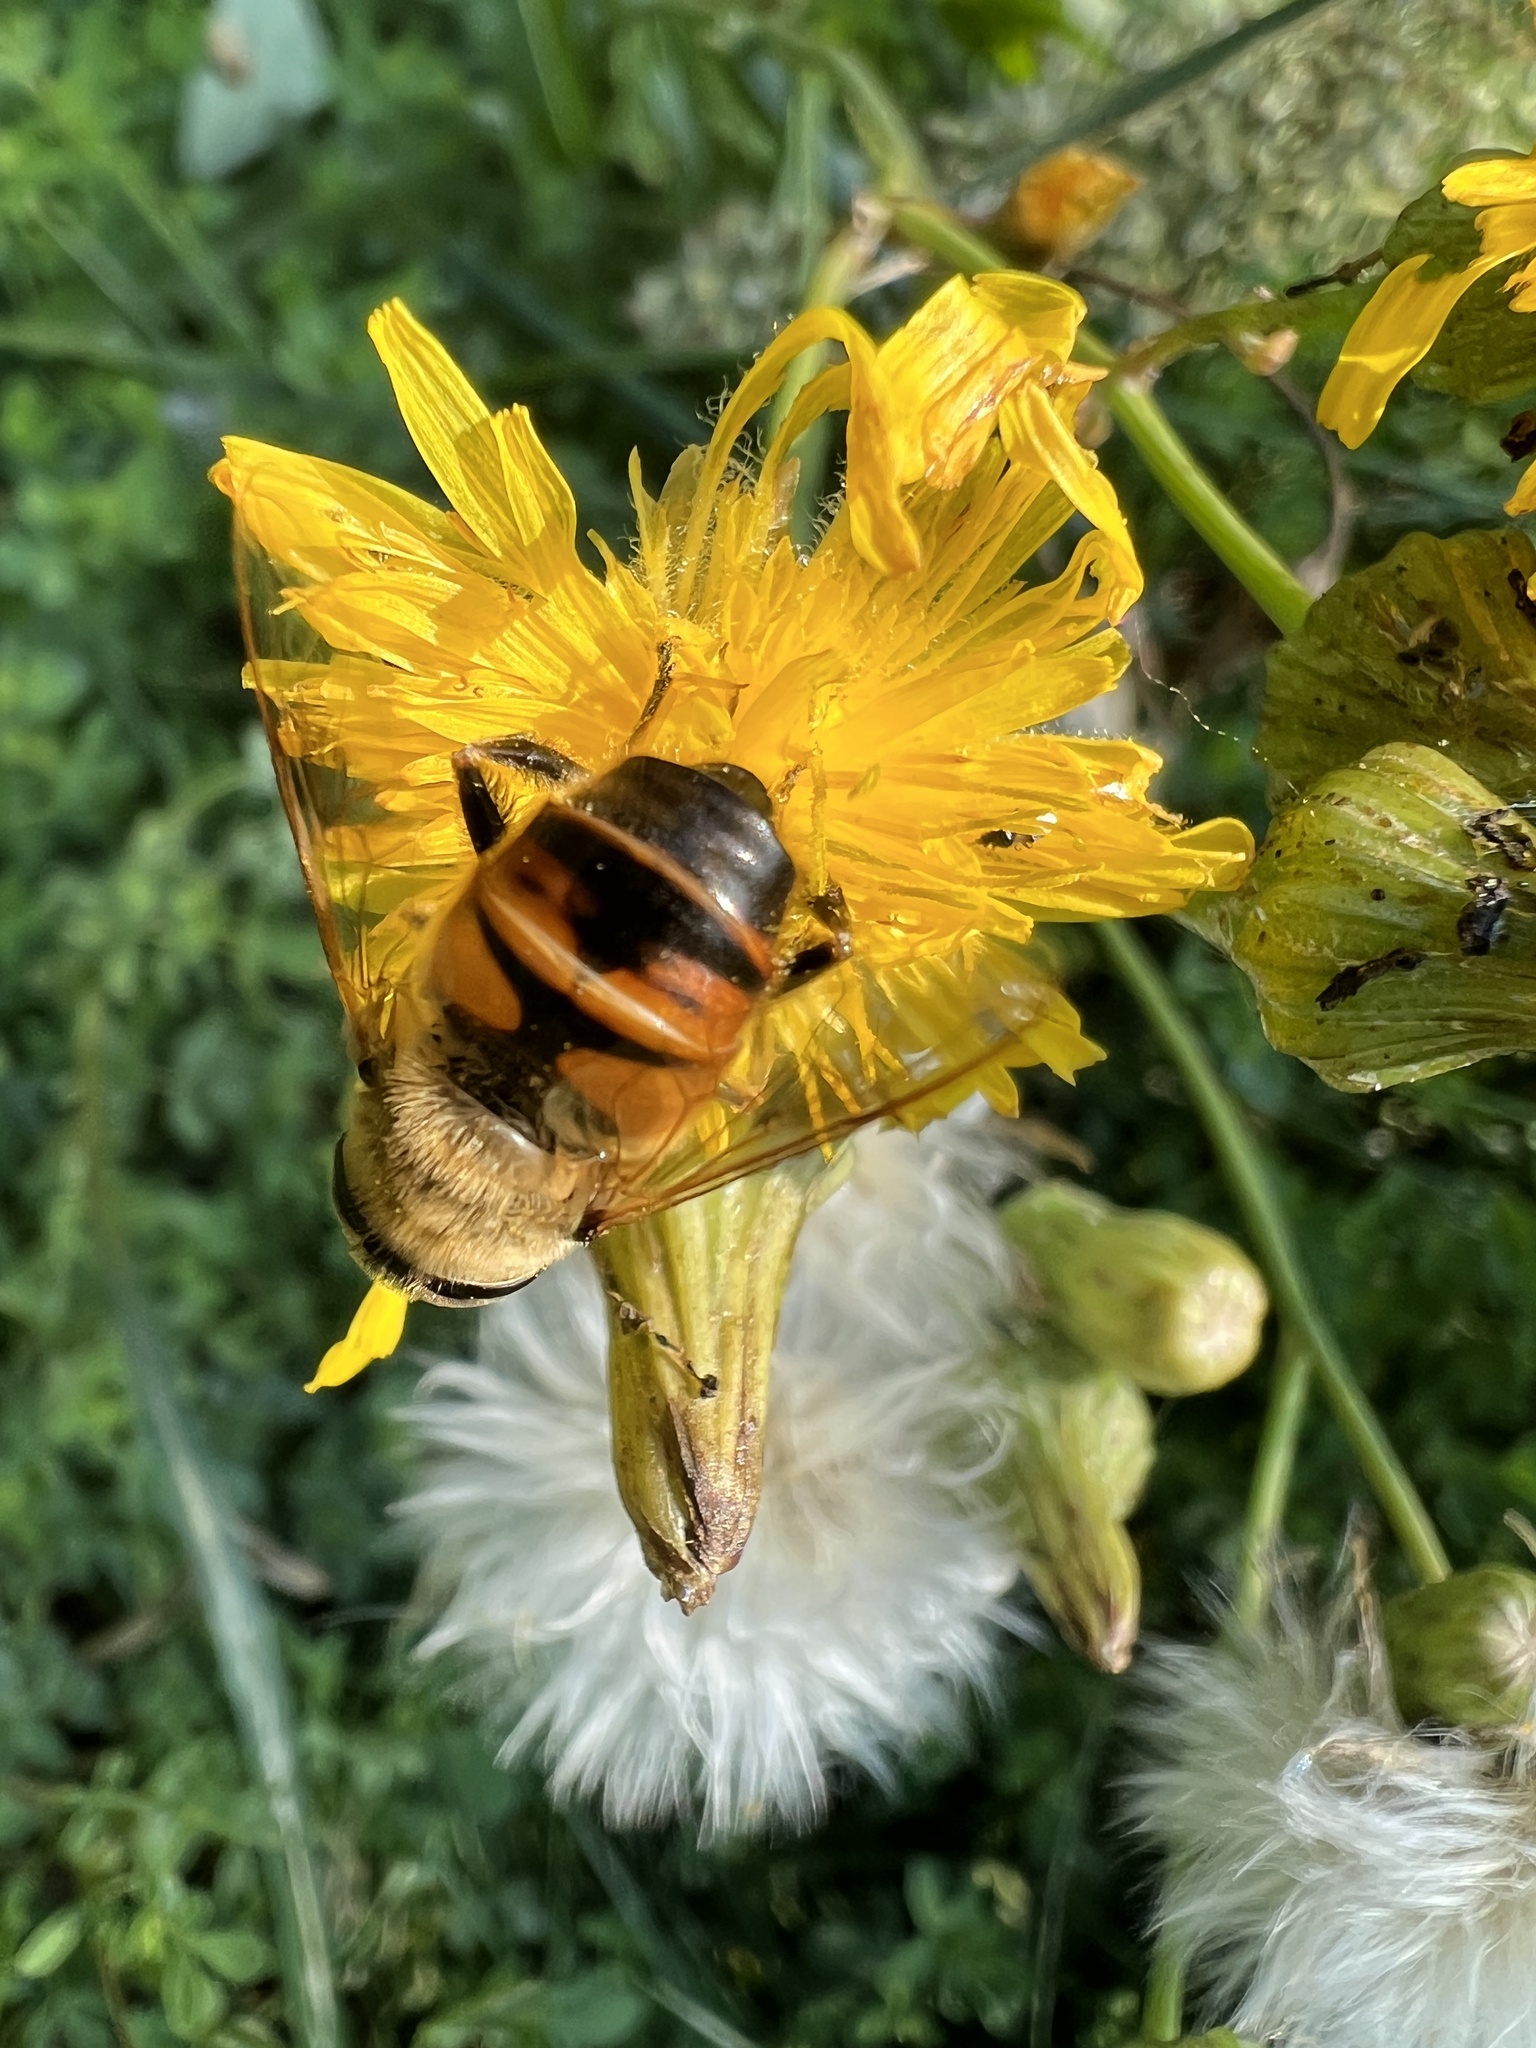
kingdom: Animalia
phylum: Arthropoda
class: Insecta
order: Diptera
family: Syrphidae
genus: Eristalis
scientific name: Eristalis tenax
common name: Drone fly
